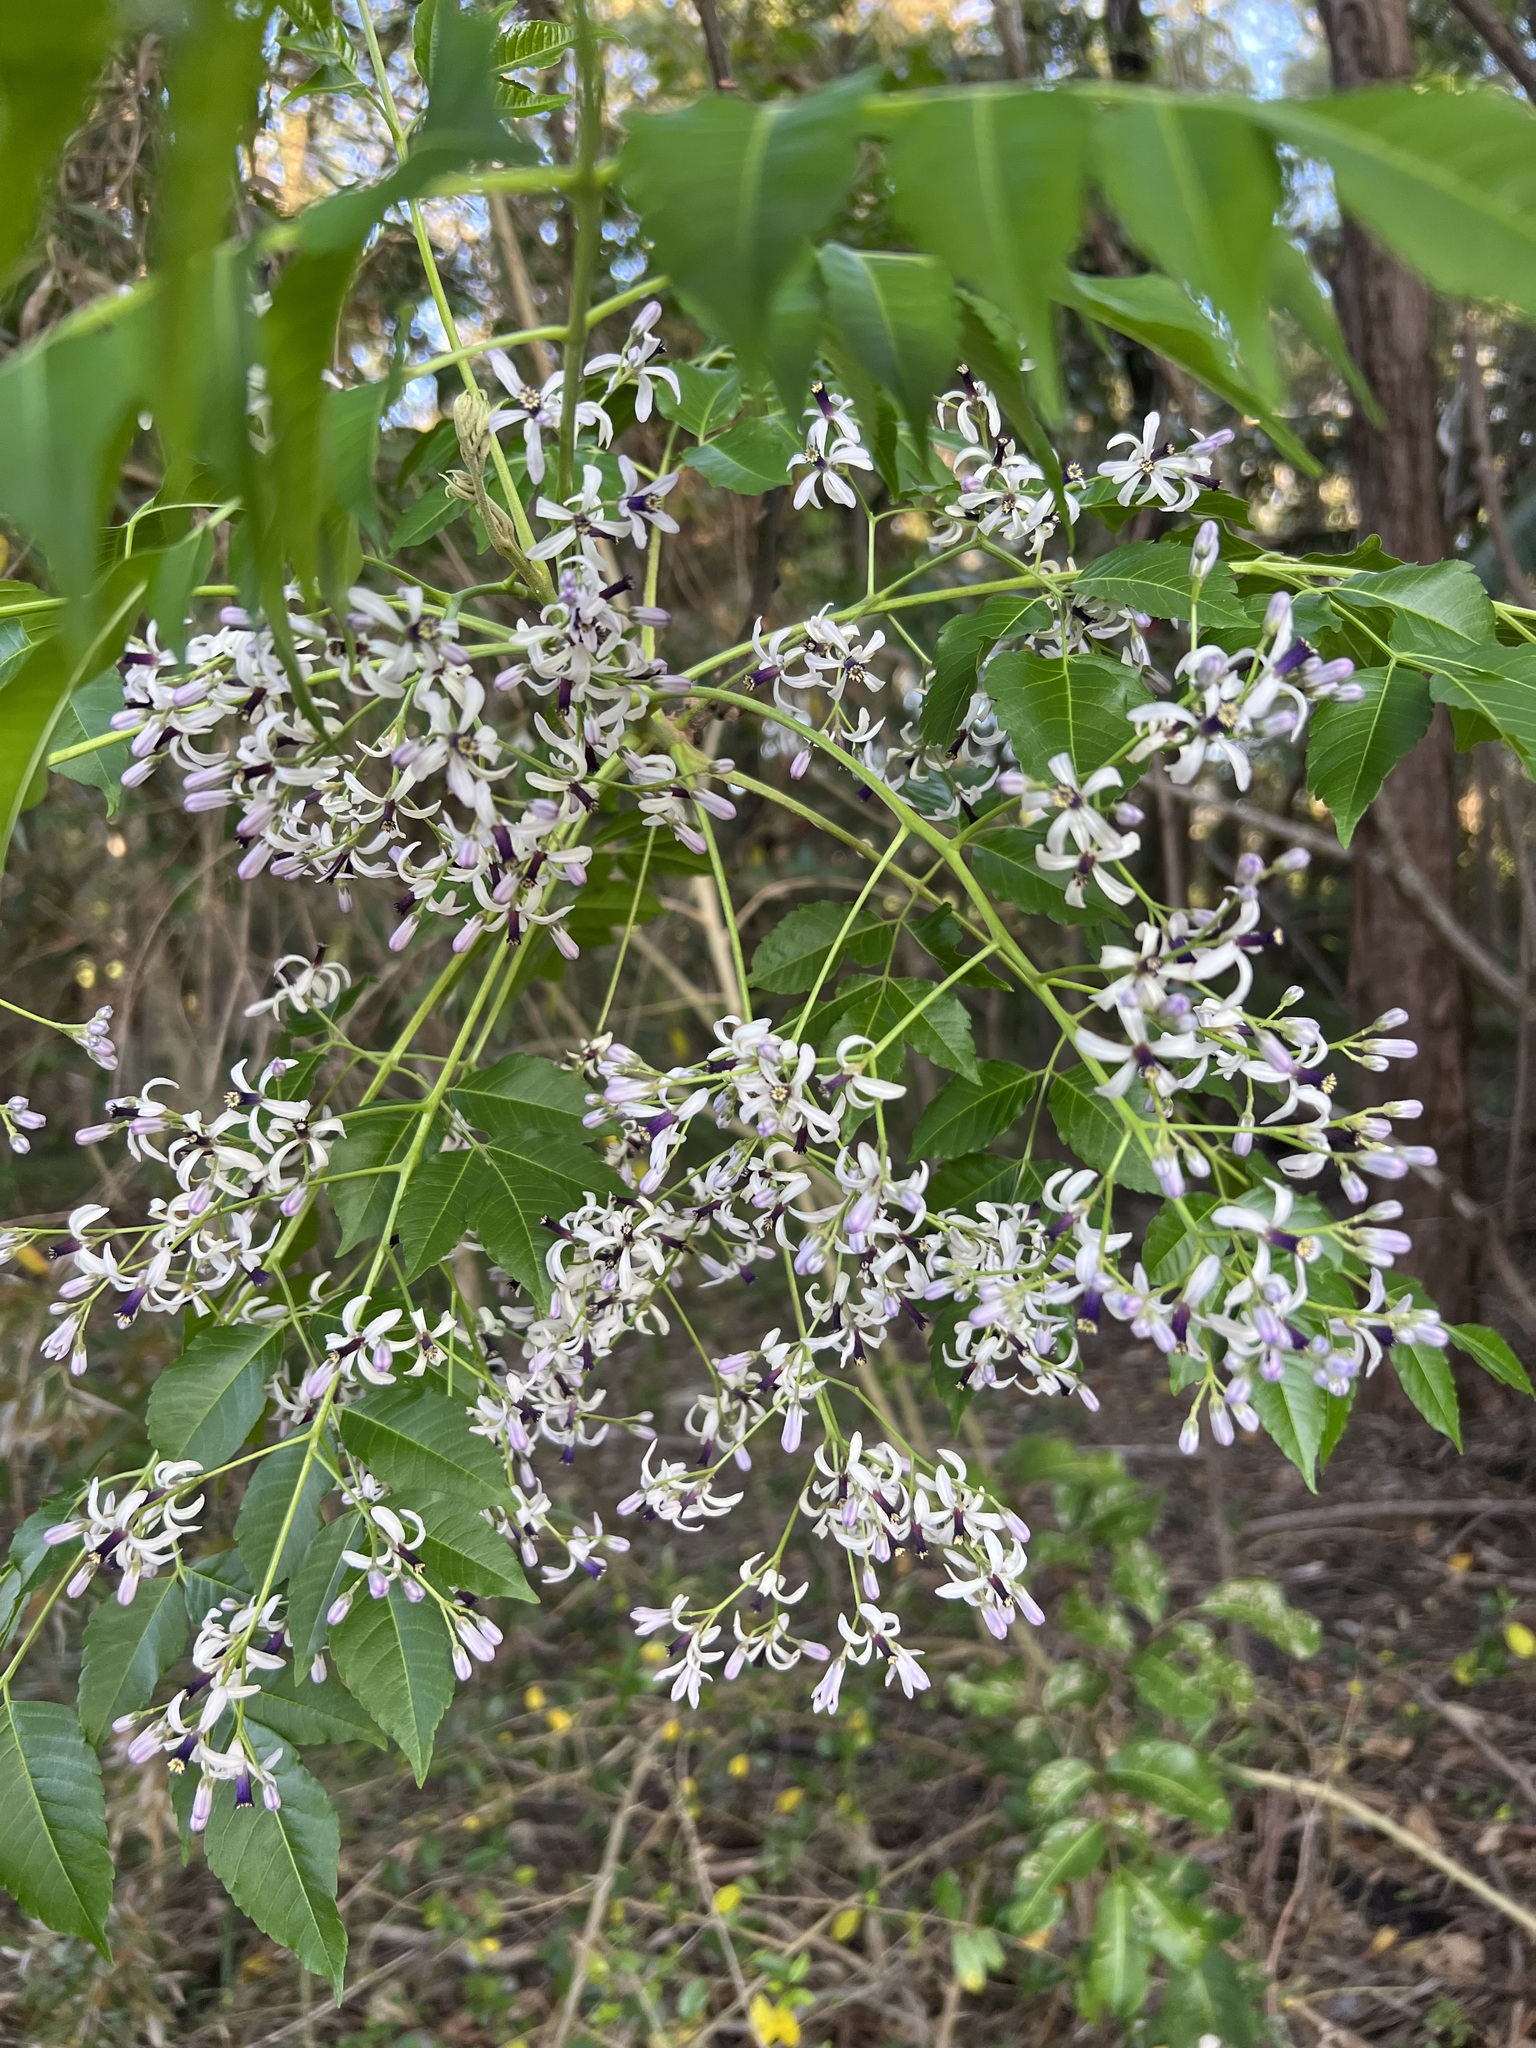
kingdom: Plantae
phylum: Tracheophyta
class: Magnoliopsida
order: Sapindales
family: Meliaceae
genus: Melia
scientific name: Melia azedarach
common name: Chinaberrytree
